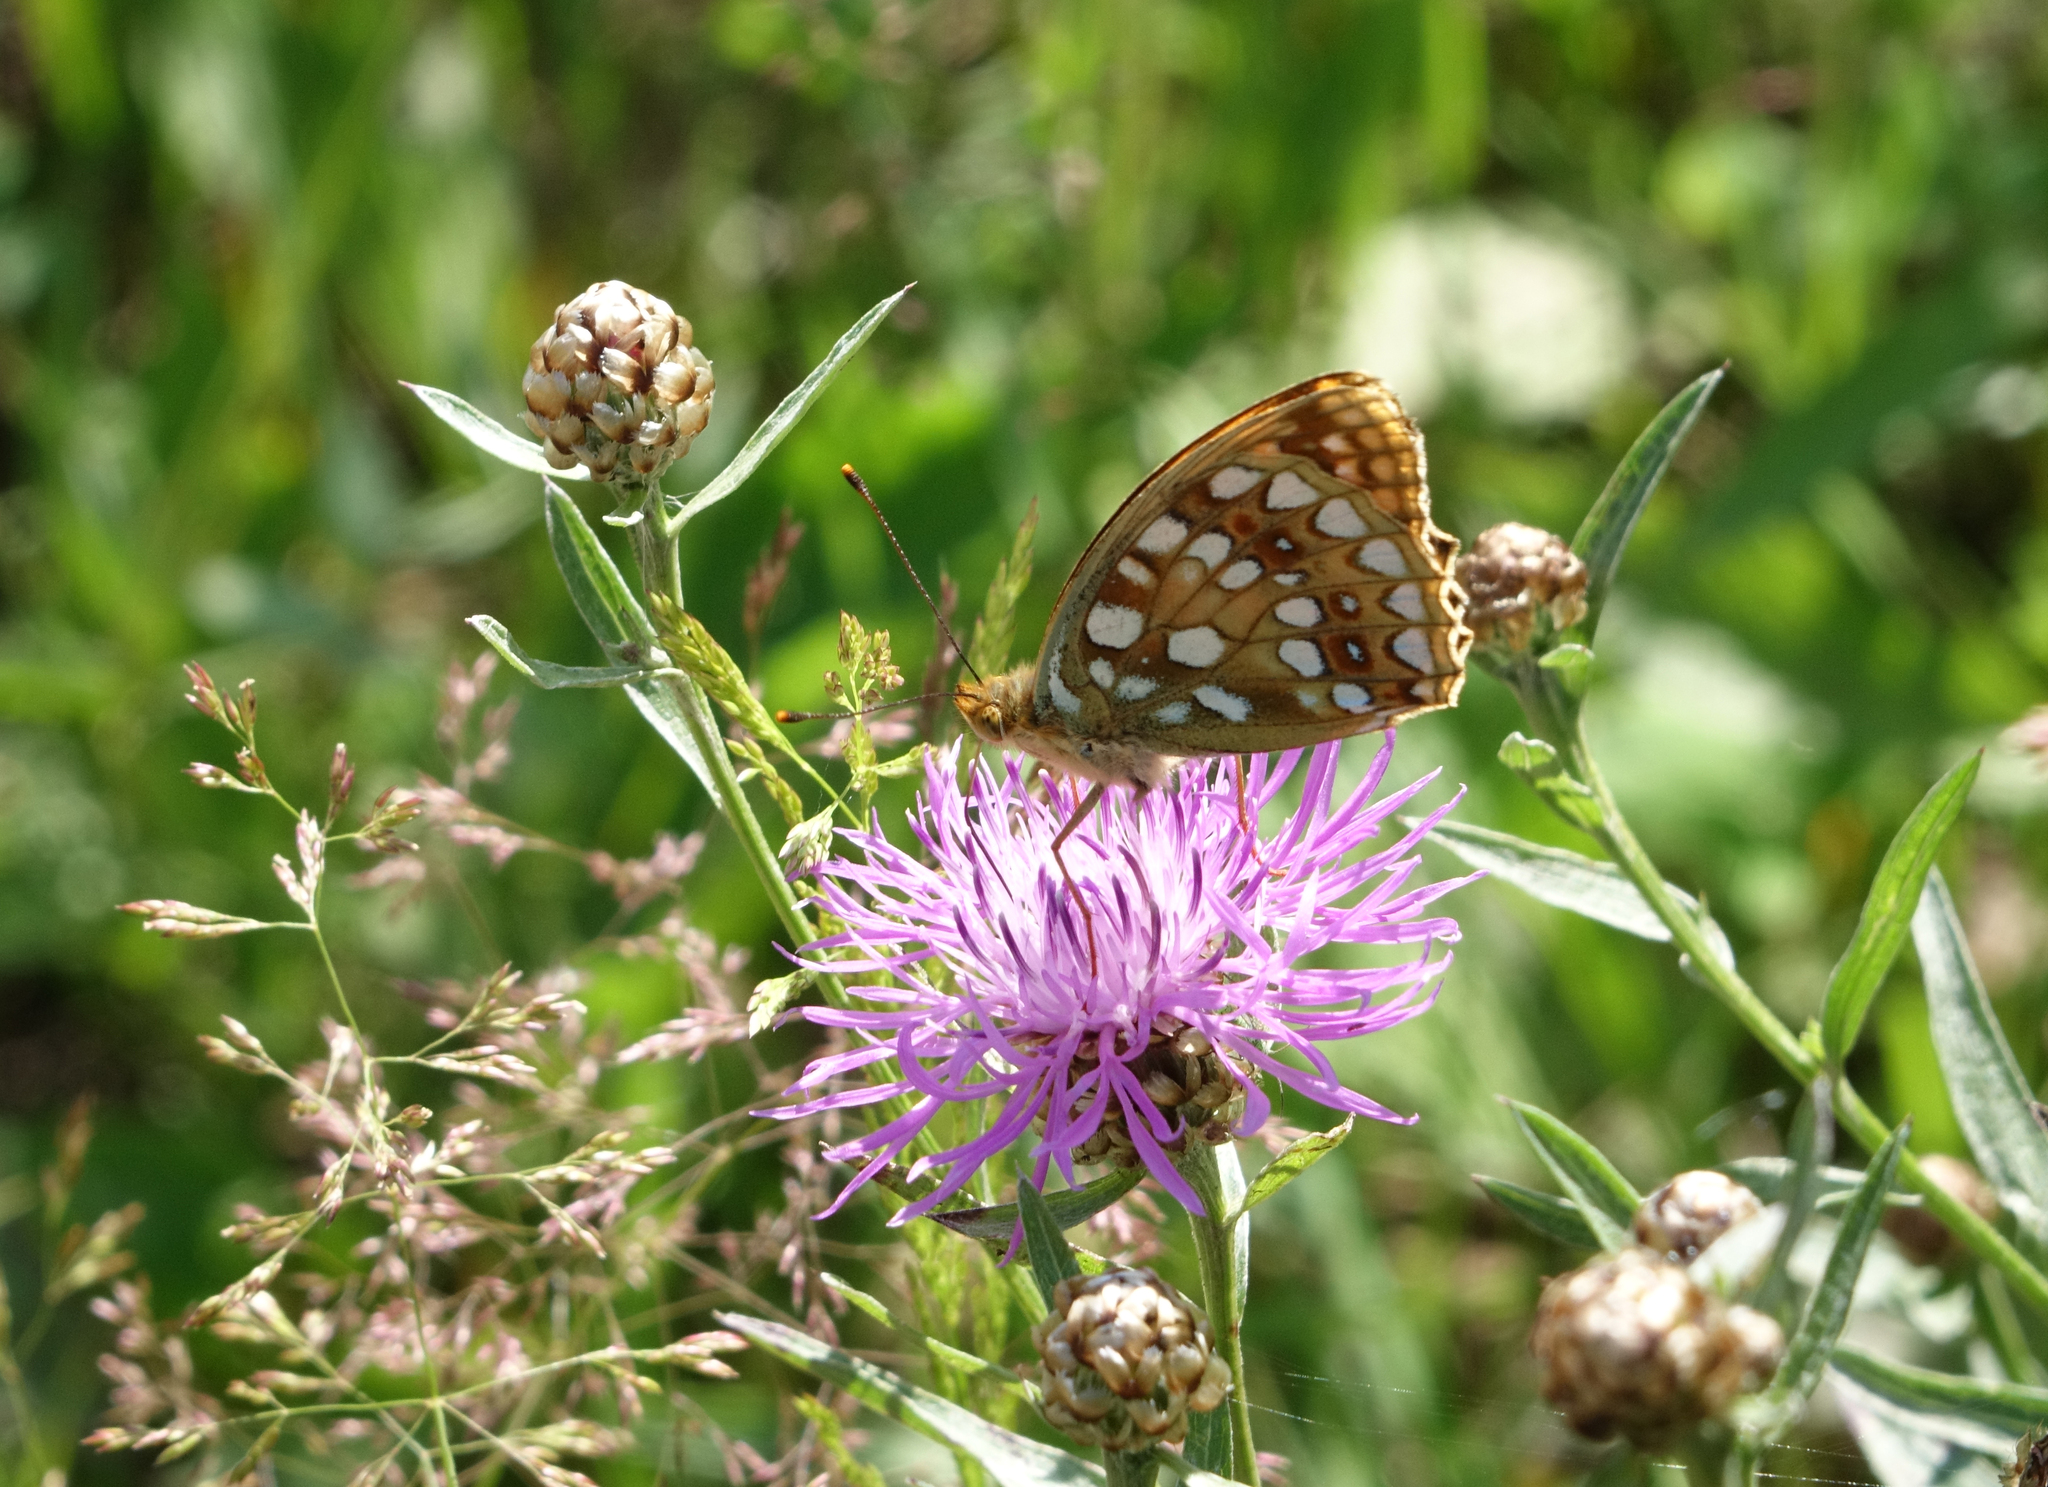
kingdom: Plantae
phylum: Tracheophyta
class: Magnoliopsida
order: Asterales
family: Asteraceae
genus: Centaurea
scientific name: Centaurea jacea
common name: Brown knapweed
